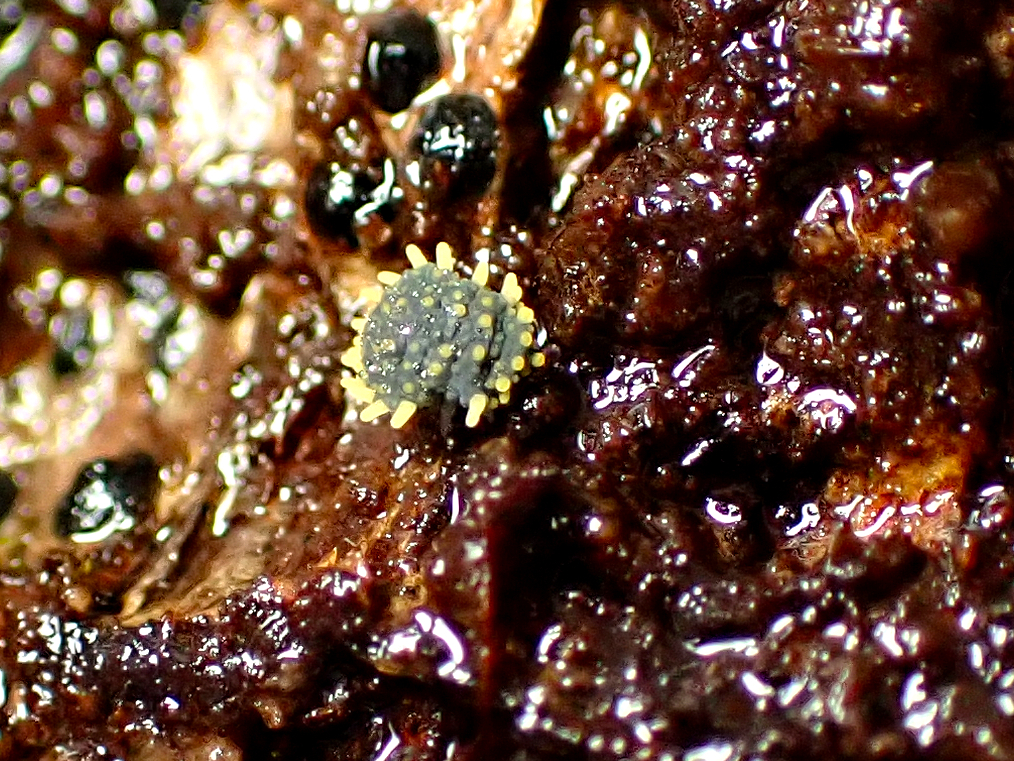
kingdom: Animalia
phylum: Arthropoda
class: Collembola
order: Poduromorpha
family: Neanuridae
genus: Holacanthella
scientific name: Holacanthella paucispinosa
